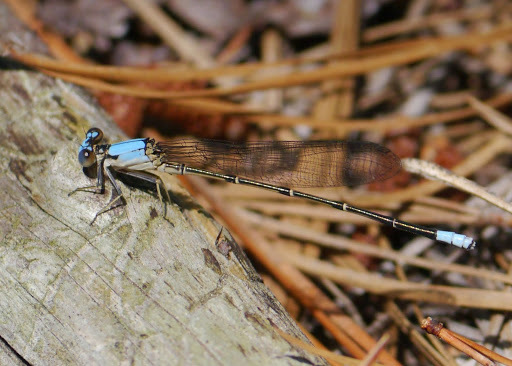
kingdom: Animalia
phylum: Arthropoda
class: Insecta
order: Odonata
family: Coenagrionidae
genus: Argia
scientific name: Argia apicalis
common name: Blue-fronted dancer
